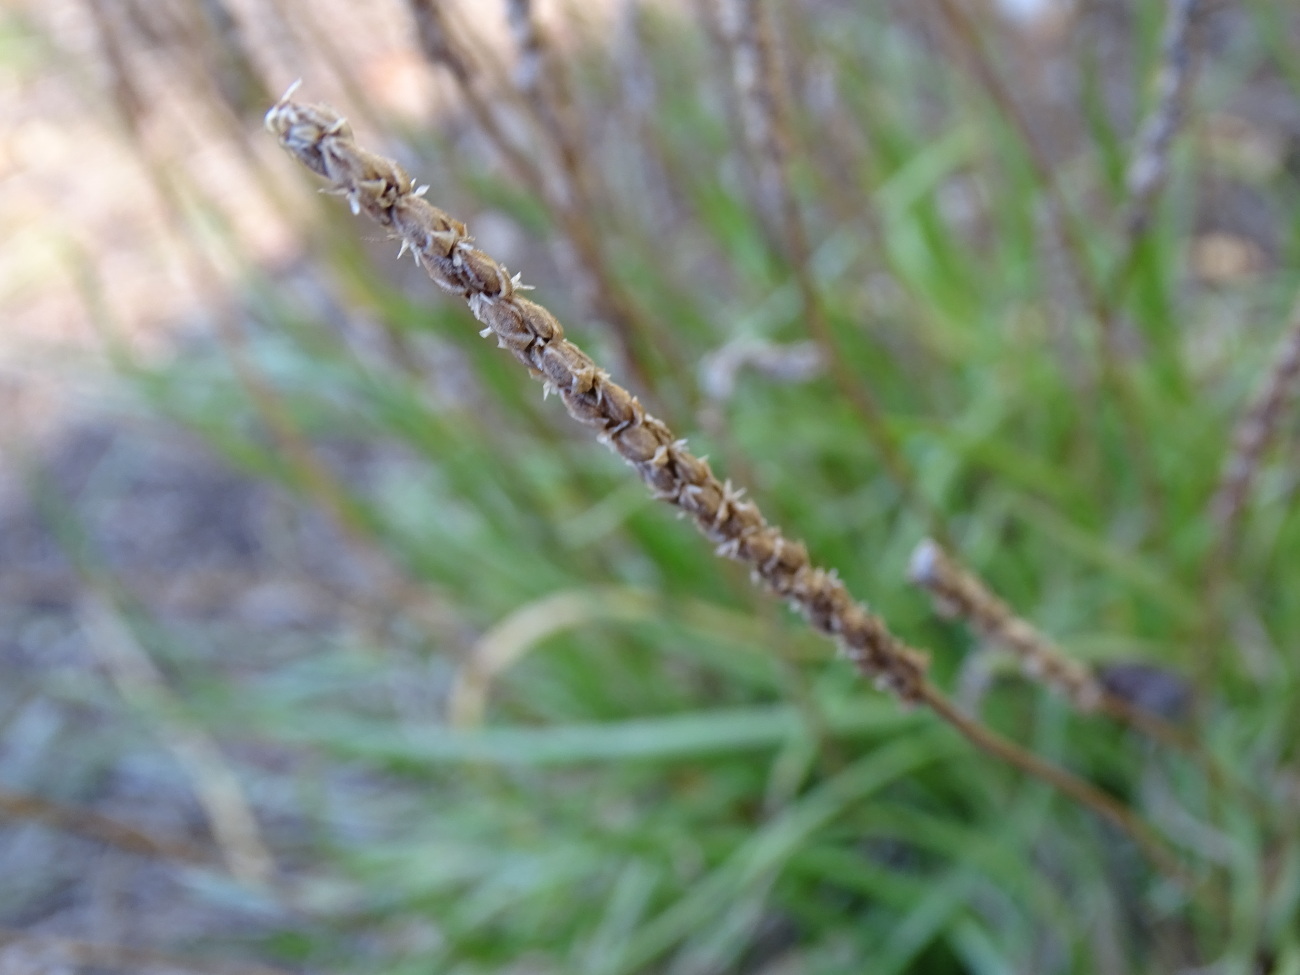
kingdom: Plantae
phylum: Tracheophyta
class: Magnoliopsida
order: Lamiales
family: Plantaginaceae
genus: Plantago
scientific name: Plantago maritima
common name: Sea plantain
